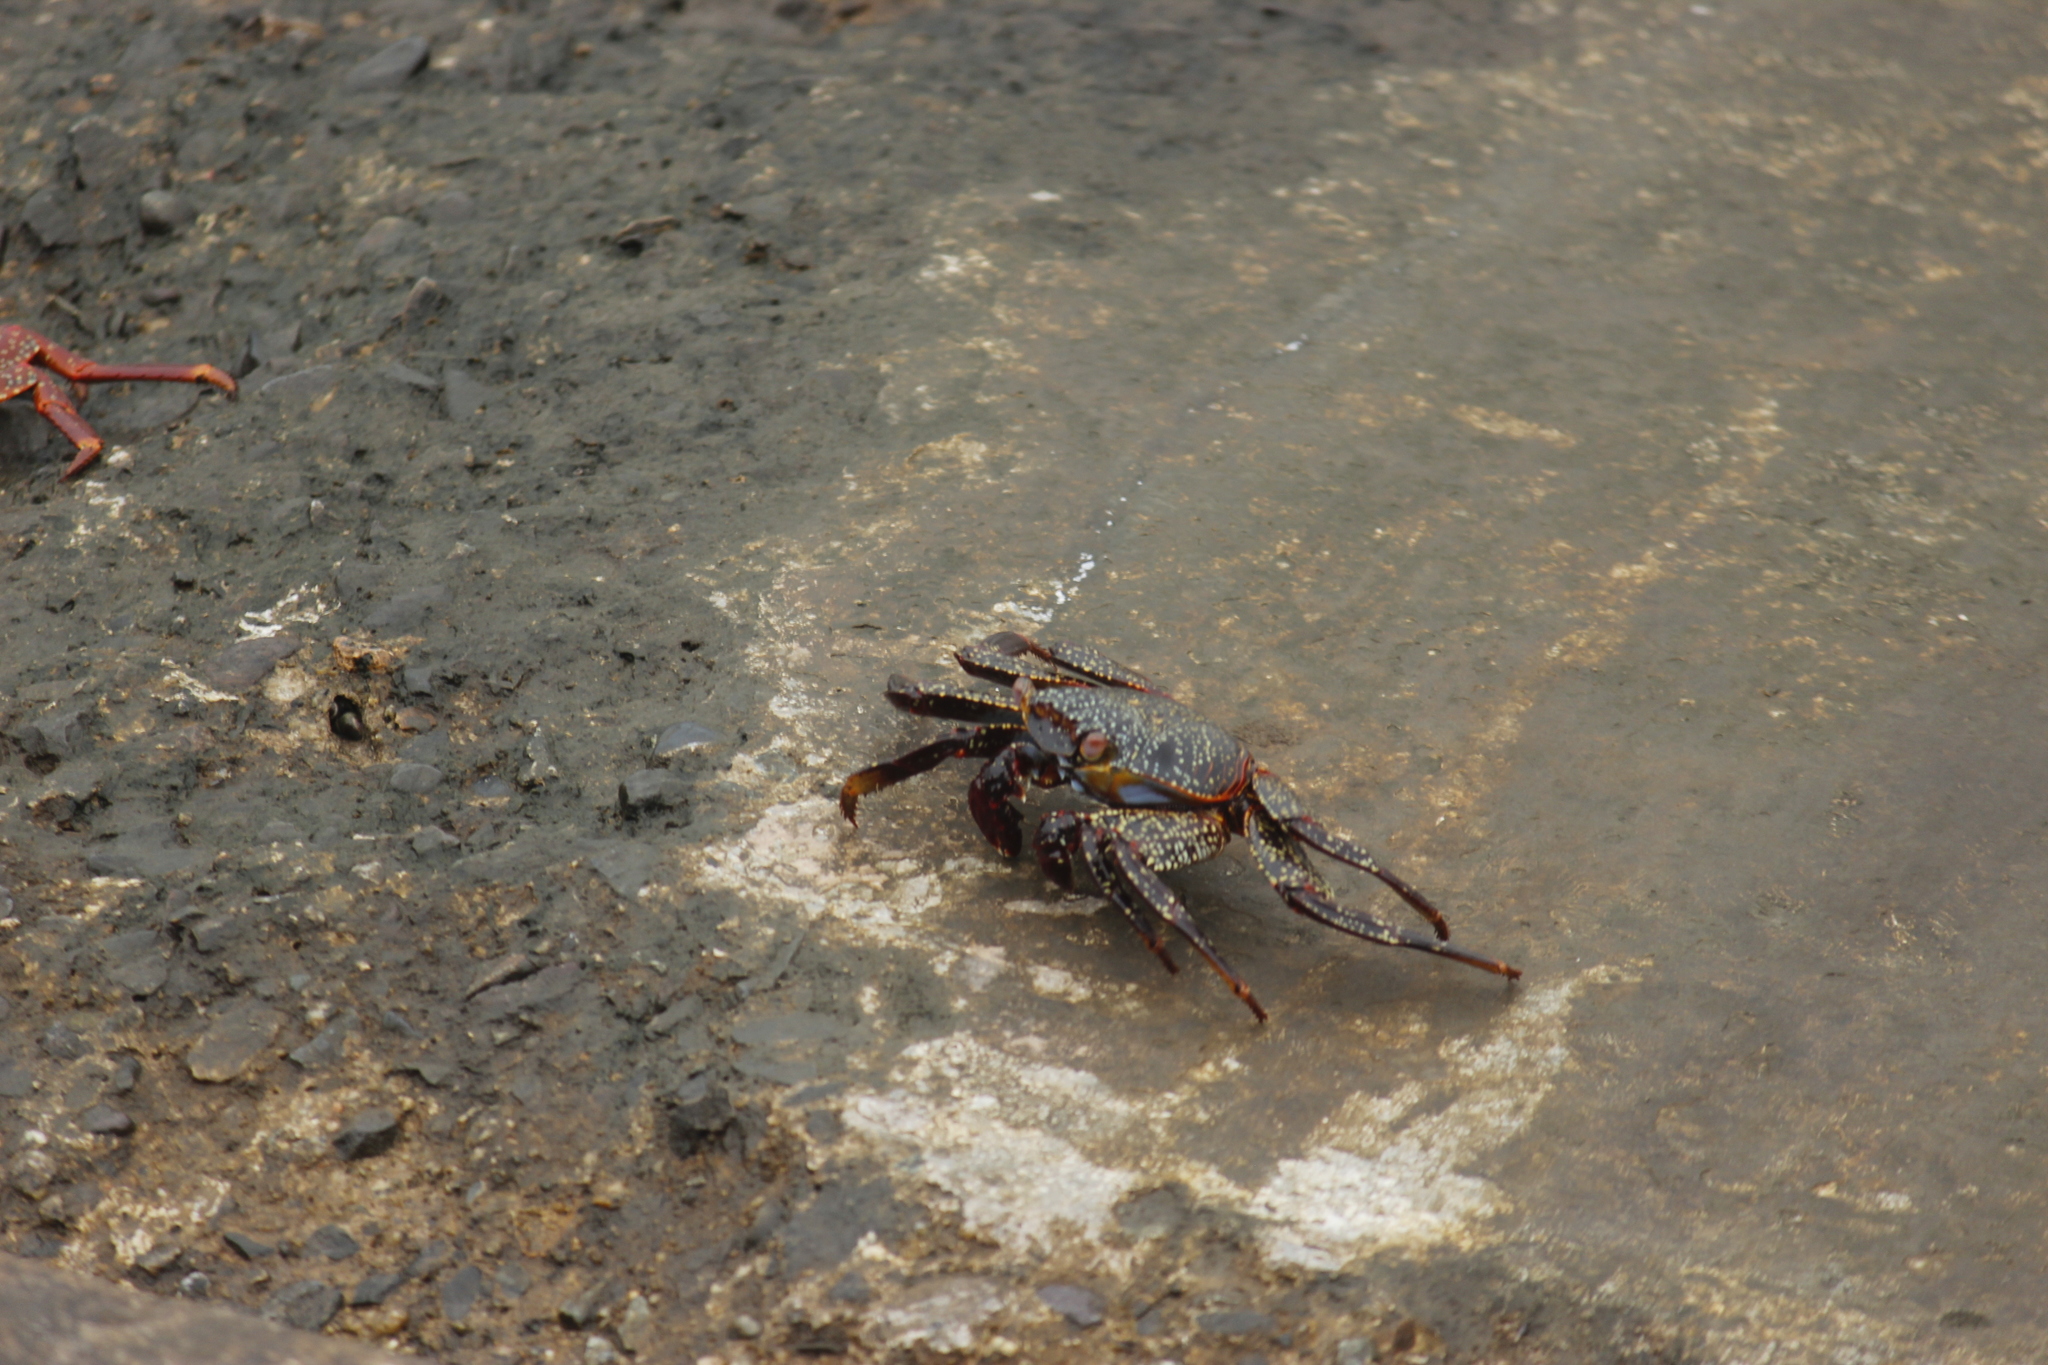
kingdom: Animalia
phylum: Arthropoda
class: Malacostraca
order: Decapoda
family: Grapsidae
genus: Grapsus
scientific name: Grapsus grapsus
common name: Sally lightfoot
